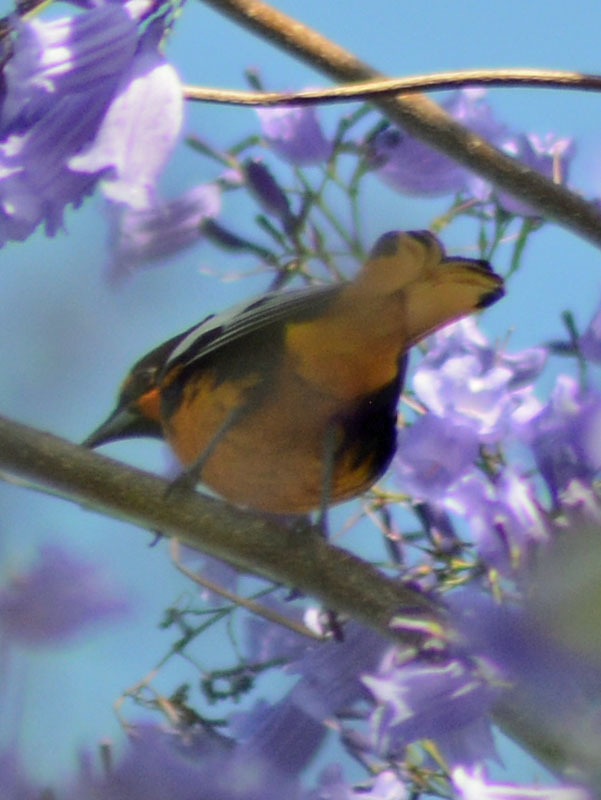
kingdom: Animalia
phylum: Chordata
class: Aves
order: Passeriformes
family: Icteridae
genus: Icterus
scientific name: Icterus abeillei
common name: Black-backed oriole
